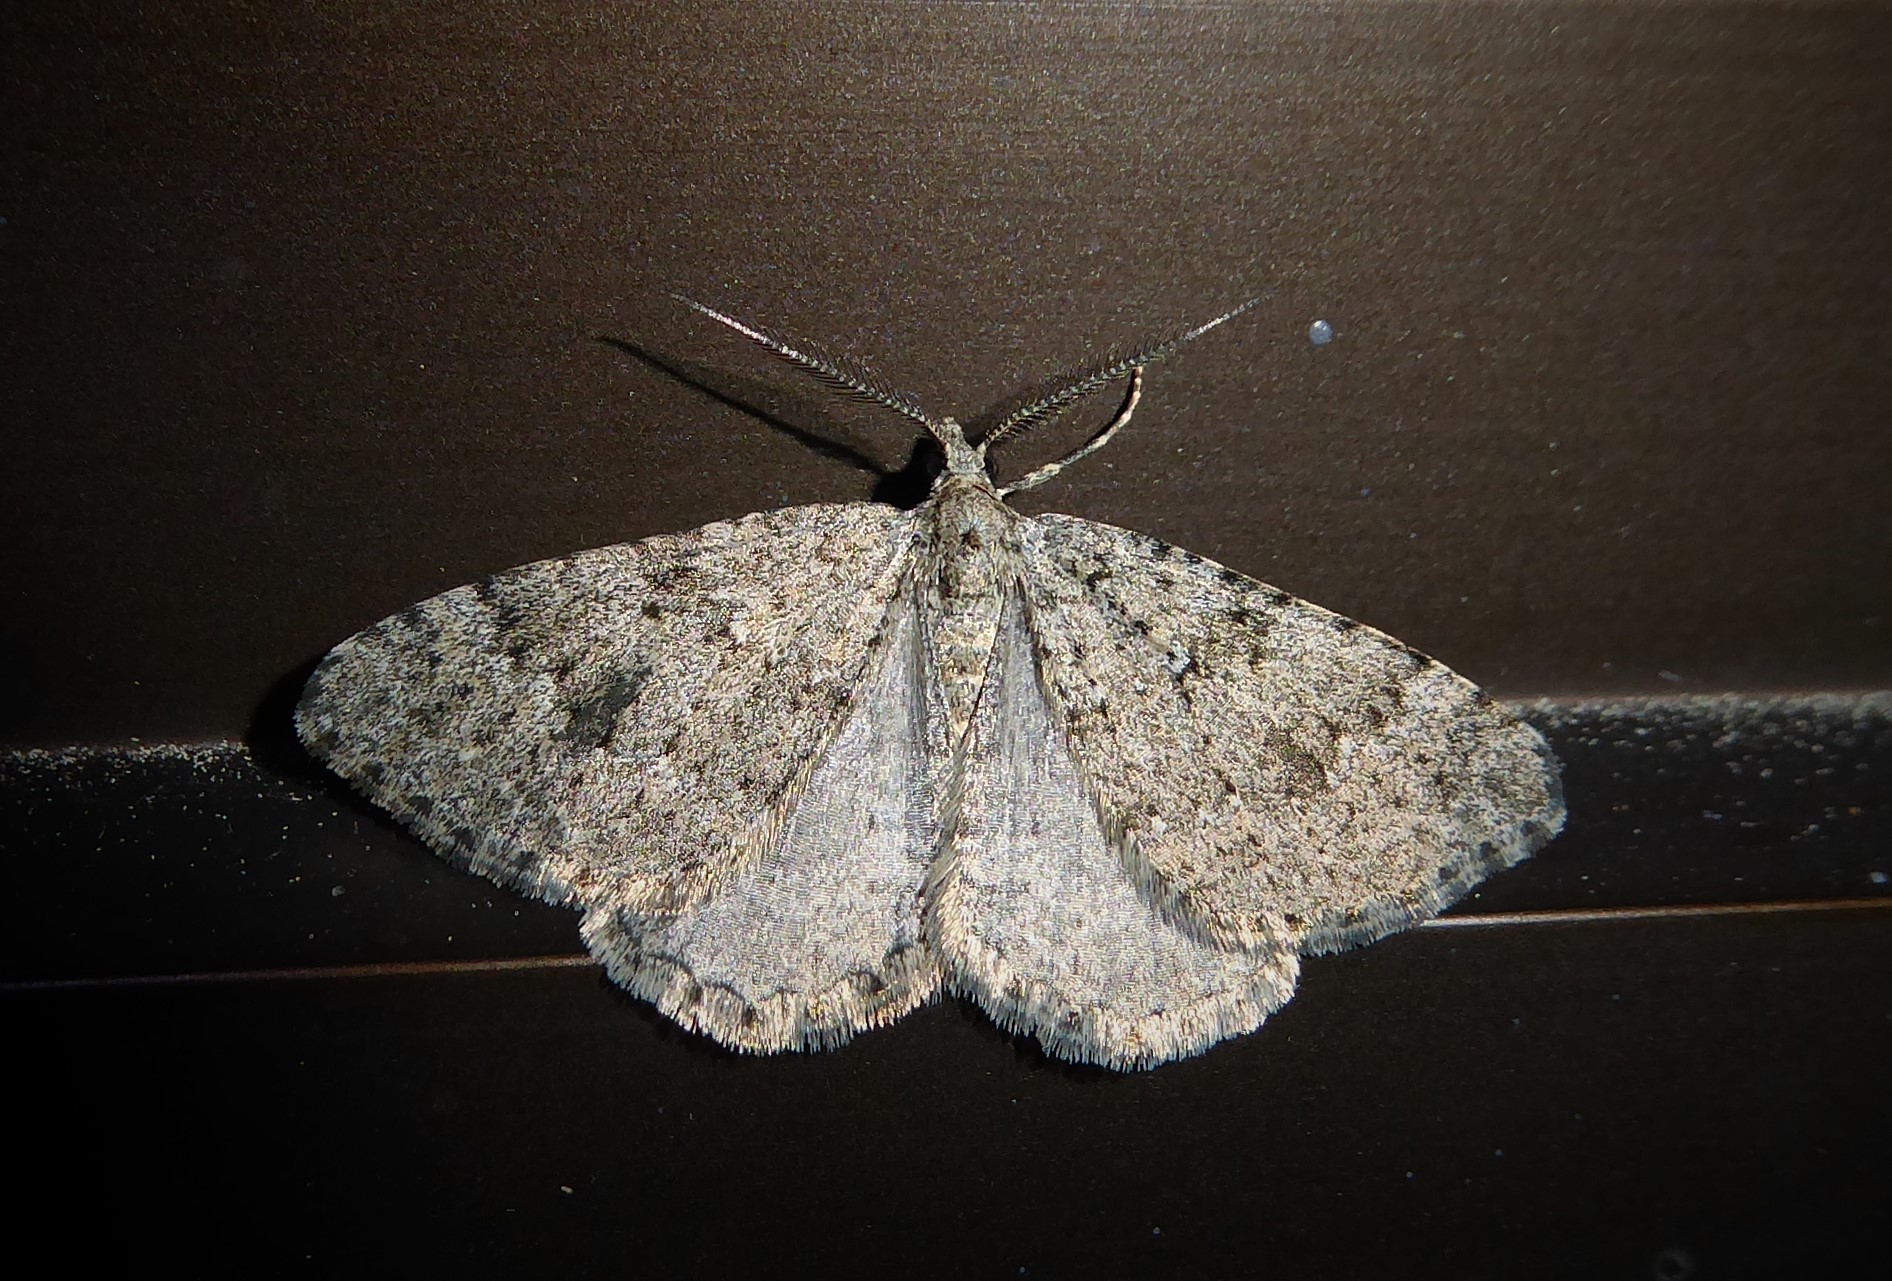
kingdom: Animalia
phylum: Arthropoda
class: Insecta
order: Lepidoptera
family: Geometridae
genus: Helastia
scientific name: Helastia corcularia
